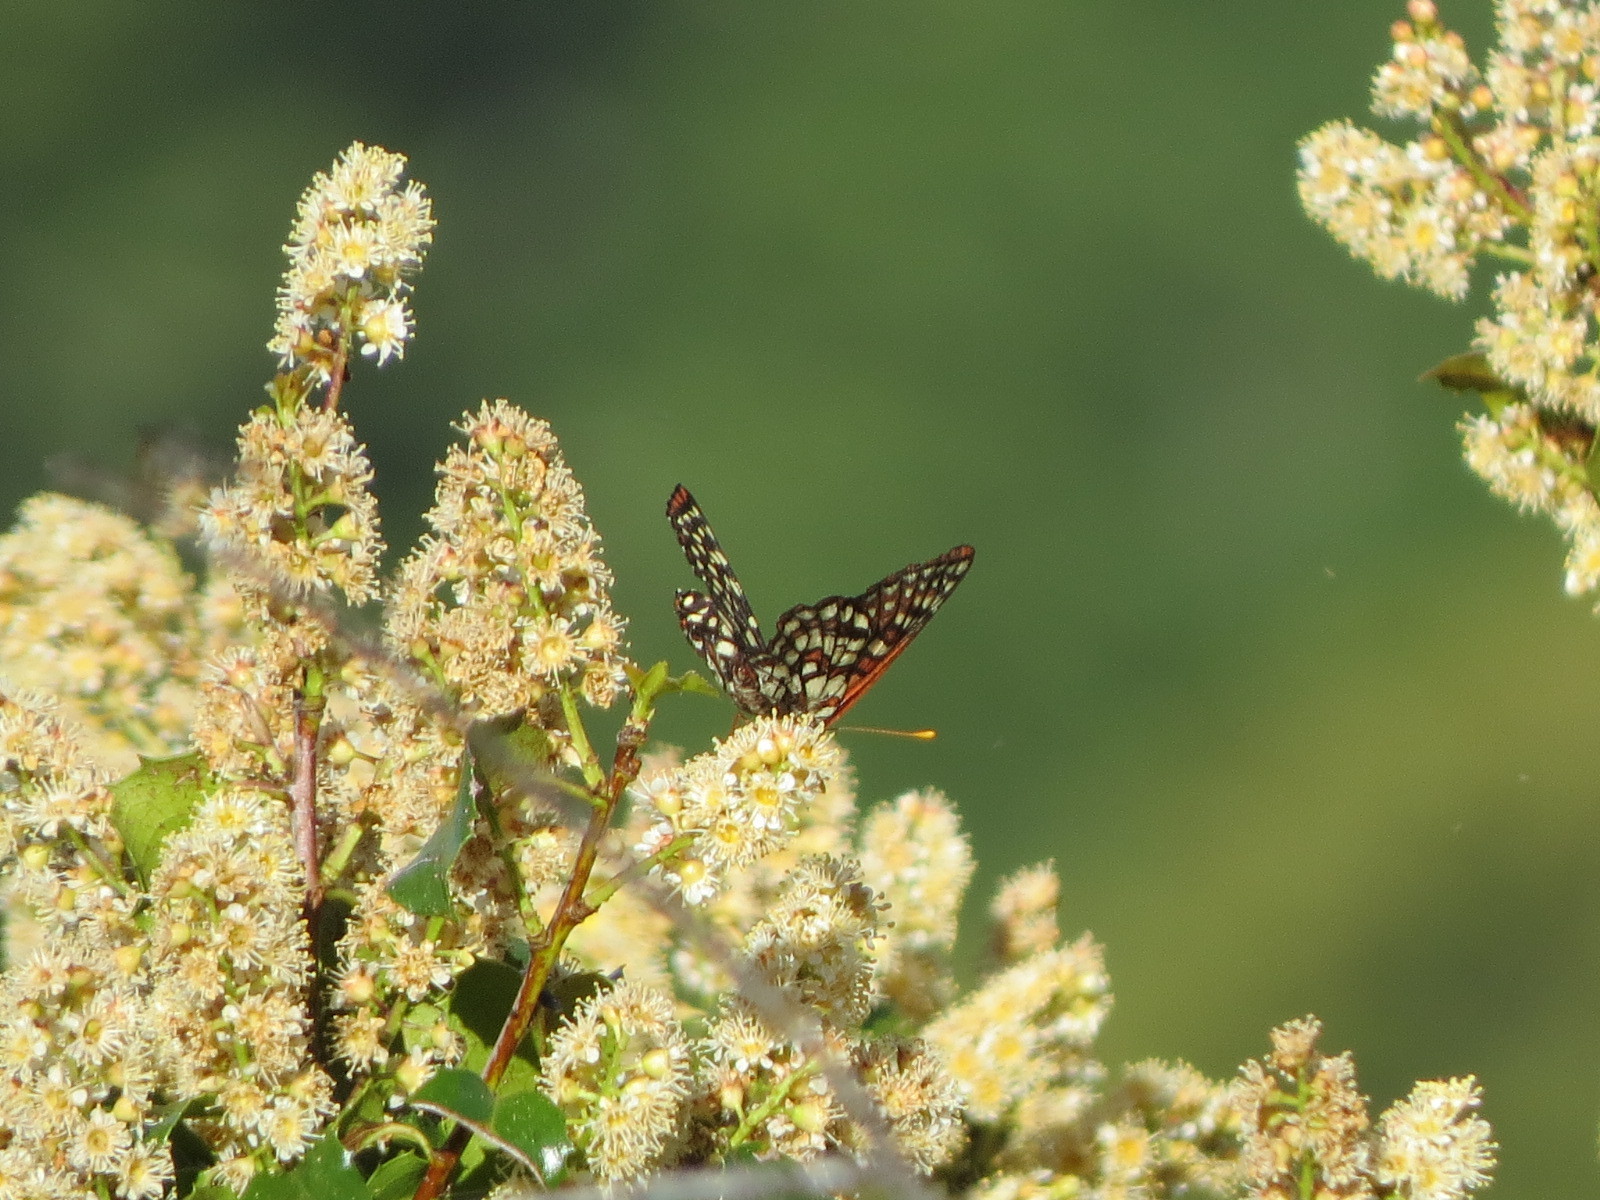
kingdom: Animalia
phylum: Arthropoda
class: Insecta
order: Lepidoptera
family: Nymphalidae
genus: Occidryas
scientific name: Occidryas chalcedona
